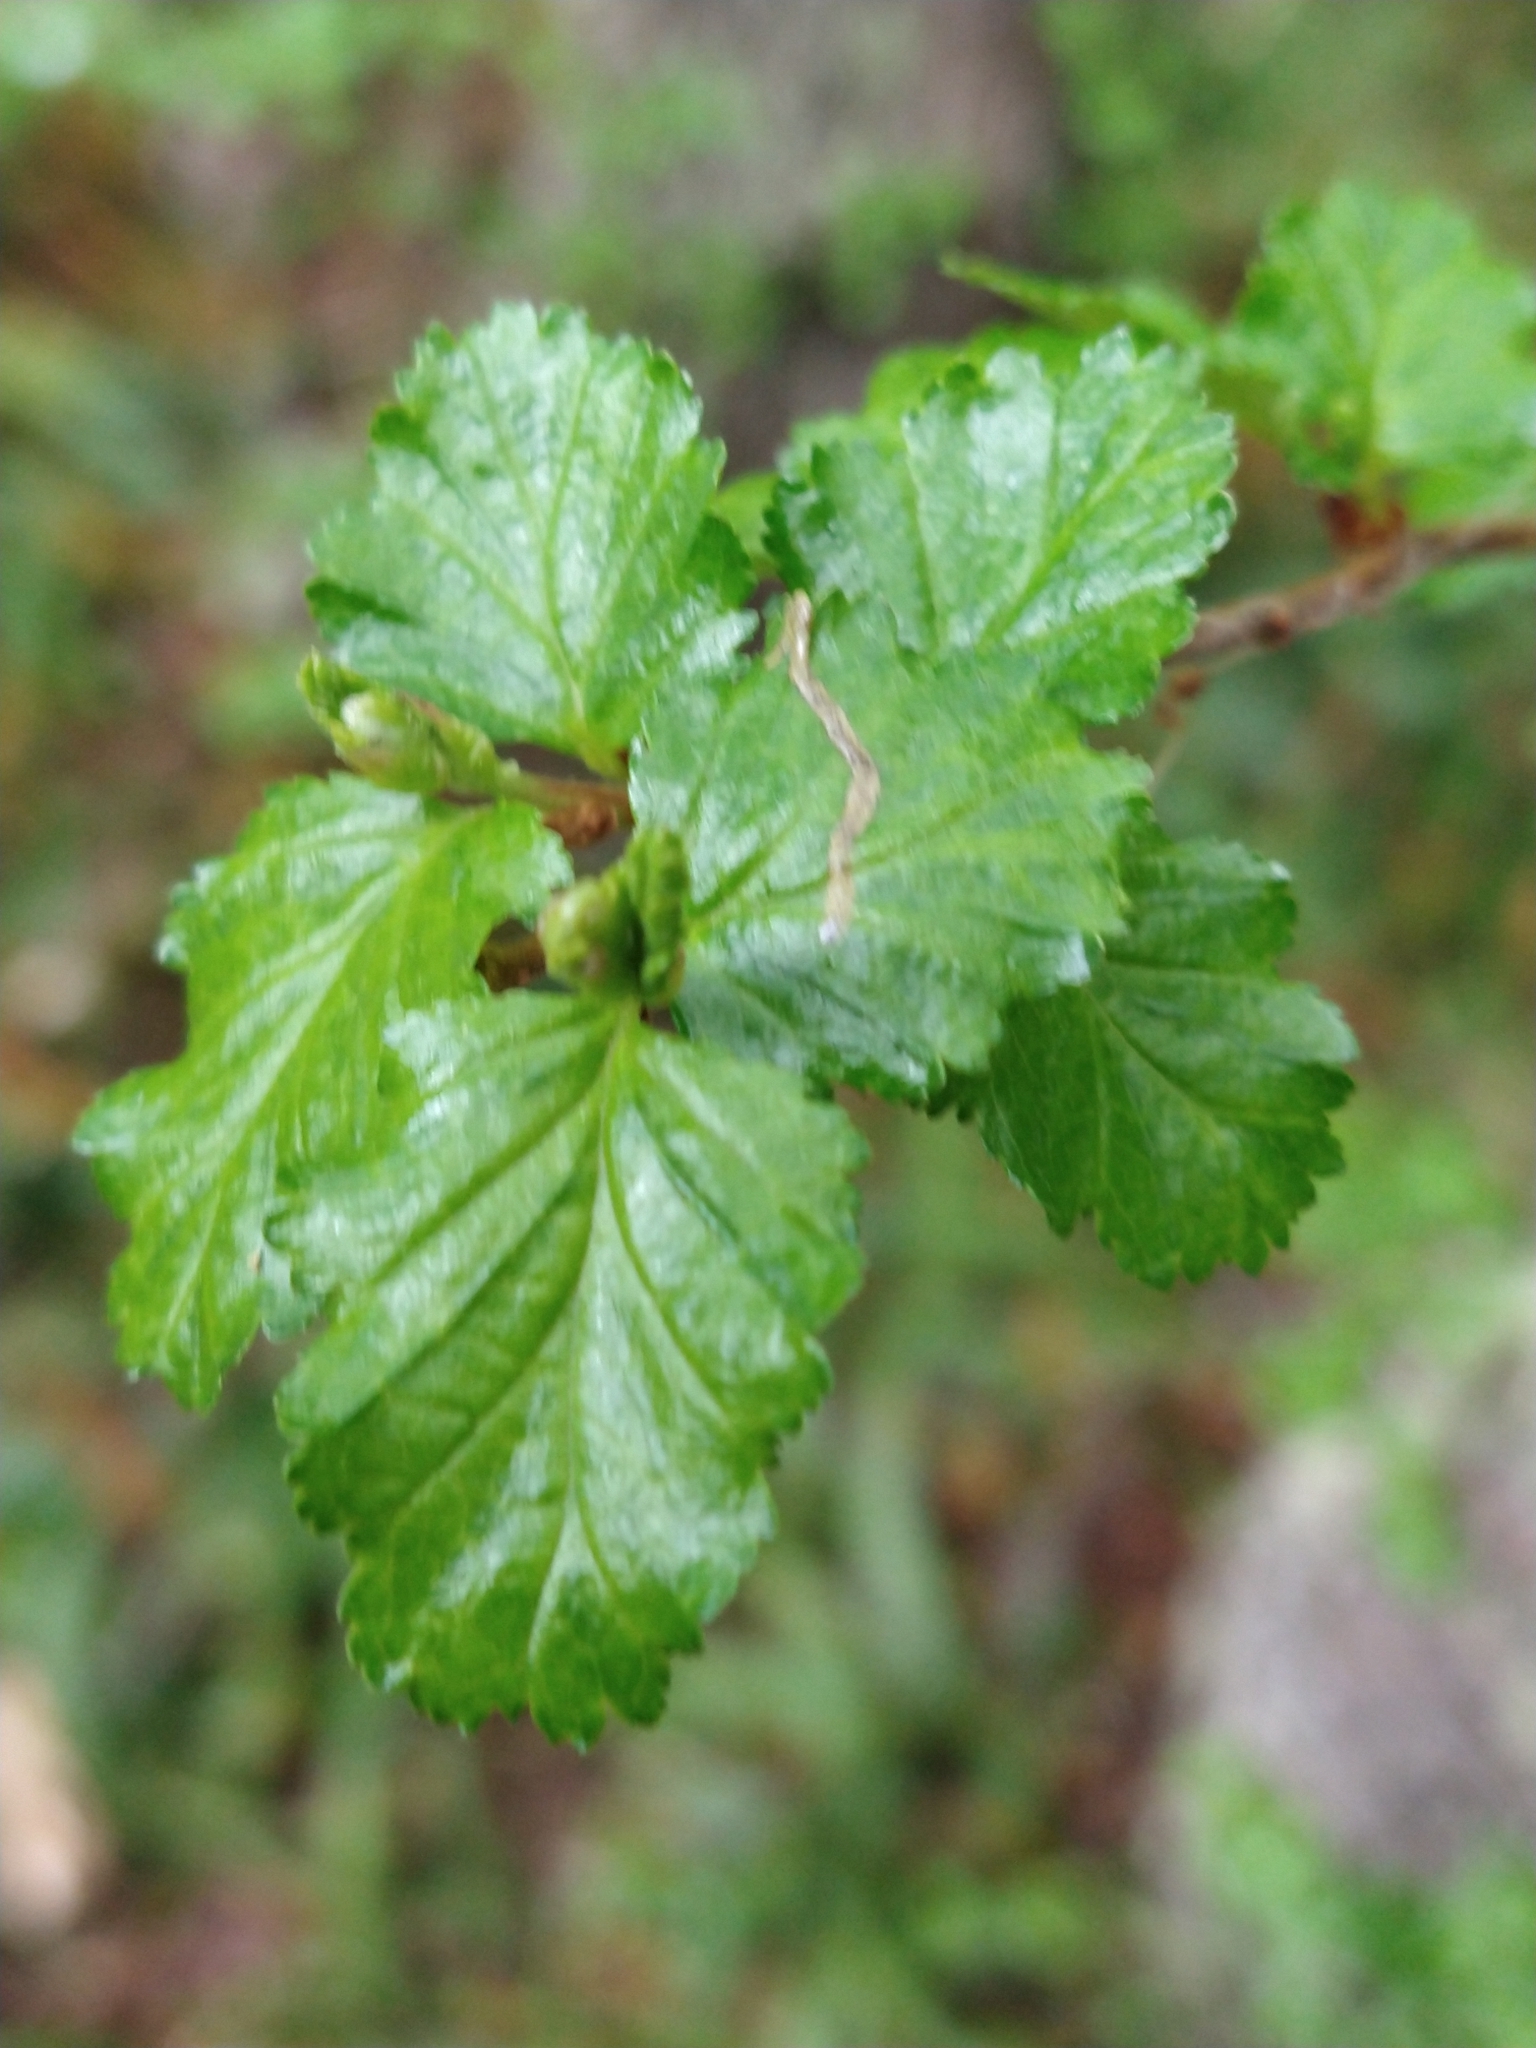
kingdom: Plantae
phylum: Tracheophyta
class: Magnoliopsida
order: Fagales
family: Nothofagaceae
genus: Nothofagus
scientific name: Nothofagus antarctica
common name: Antarctic beech
